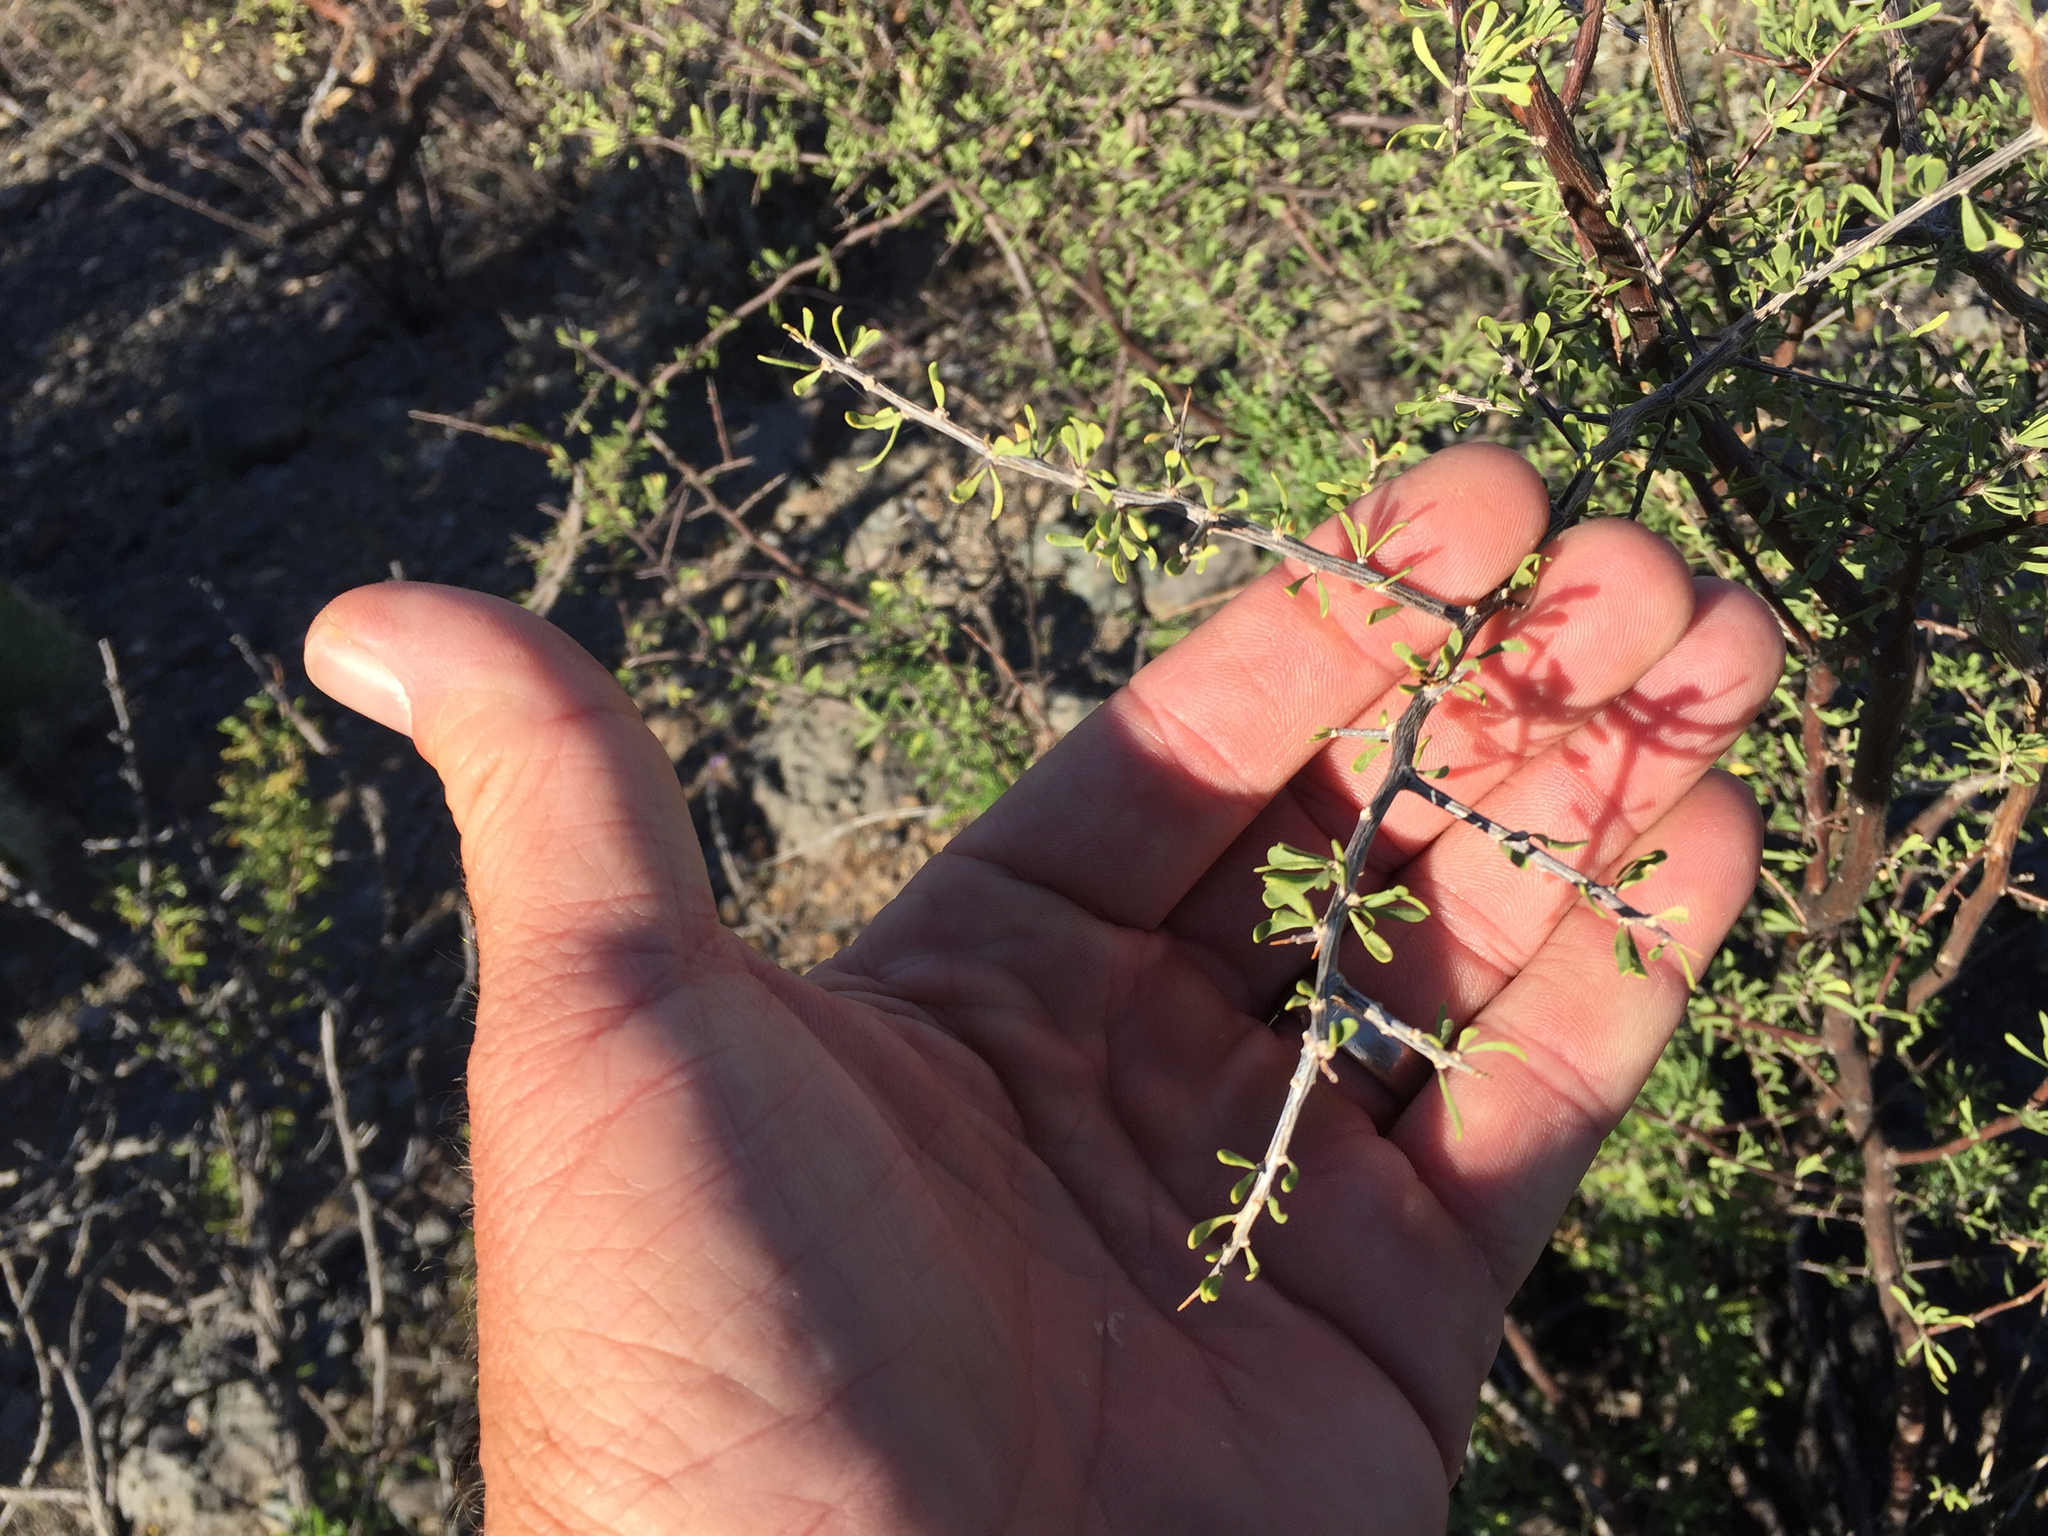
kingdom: Plantae
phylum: Tracheophyta
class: Magnoliopsida
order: Solanales
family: Solanaceae
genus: Lycium
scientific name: Lycium berlandieri
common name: Berlandier wolfberry
